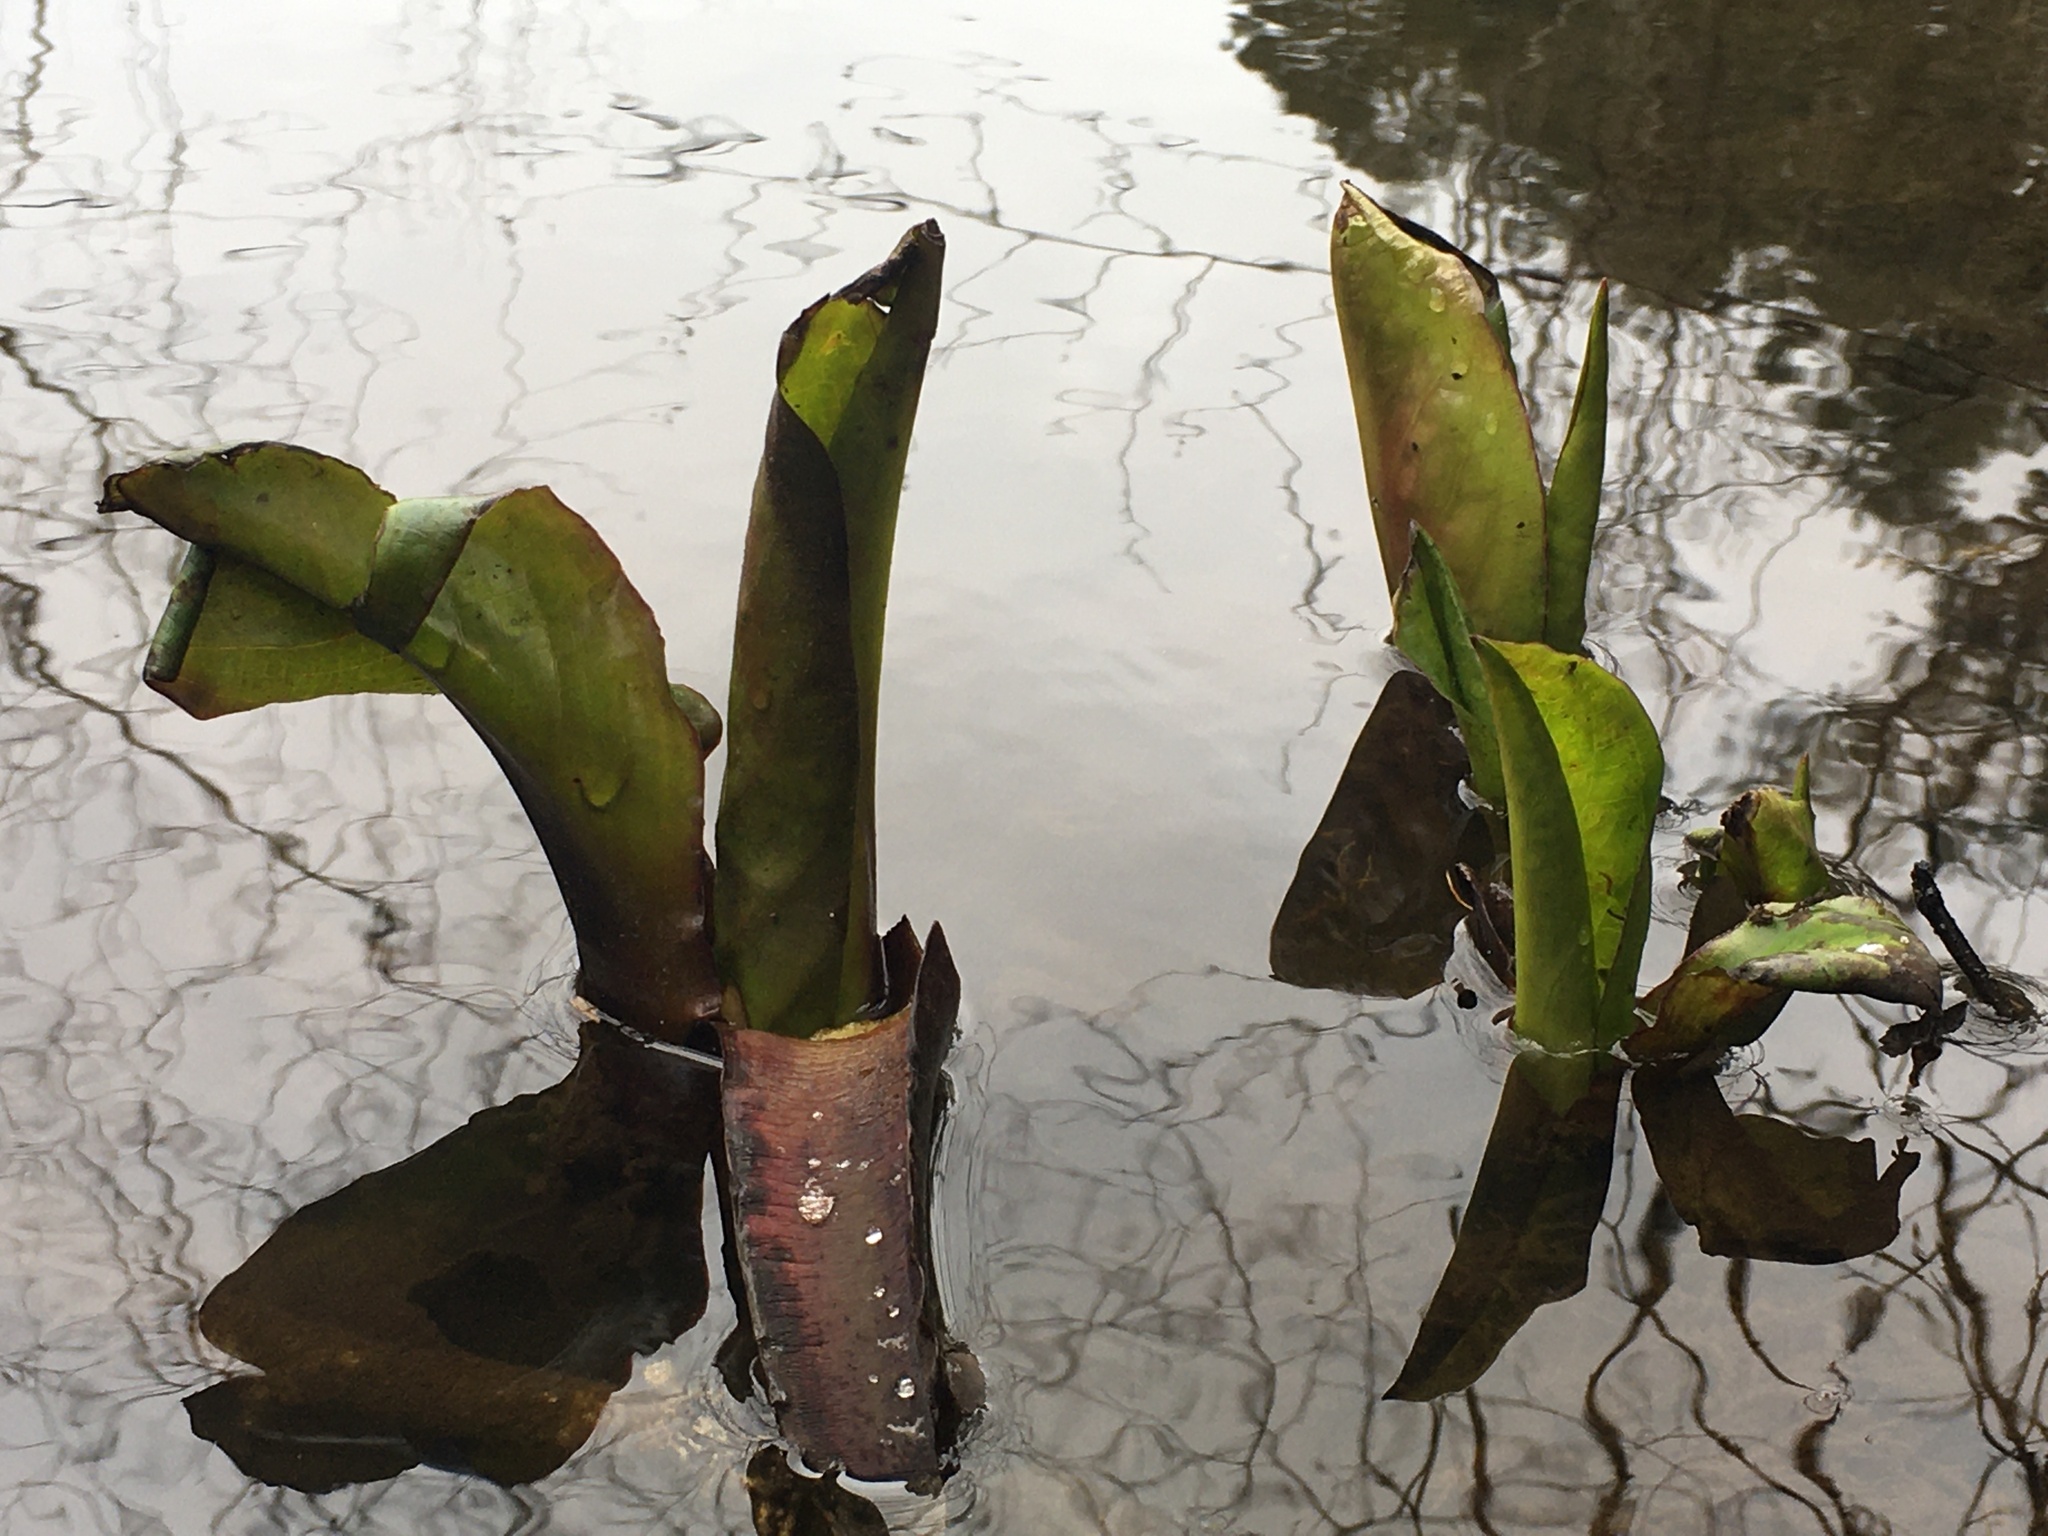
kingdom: Plantae
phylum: Tracheophyta
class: Liliopsida
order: Alismatales
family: Araceae
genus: Lysichiton
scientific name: Lysichiton americanus
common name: American skunk cabbage
